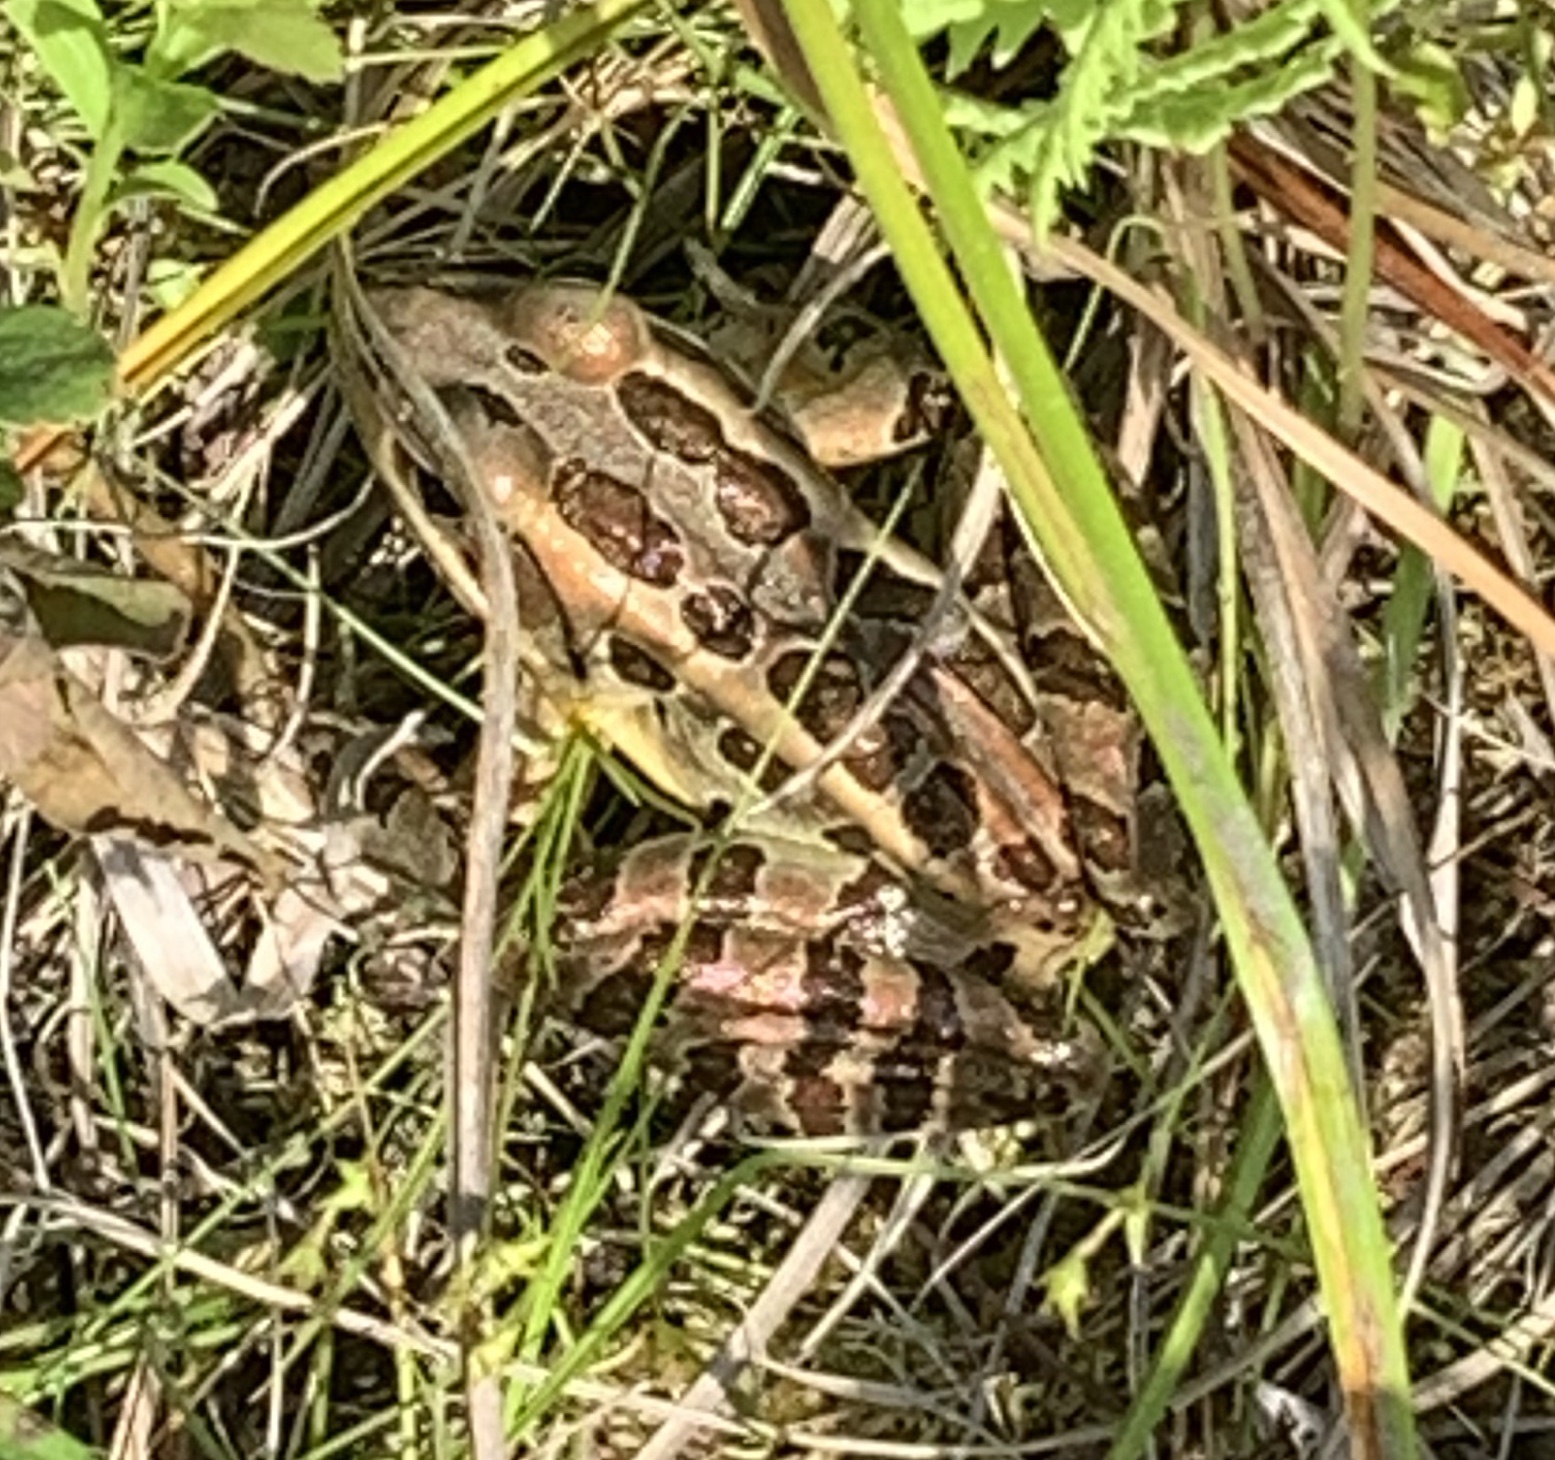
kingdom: Animalia
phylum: Chordata
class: Amphibia
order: Anura
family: Ranidae
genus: Lithobates
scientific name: Lithobates palustris
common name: Pickerel frog
